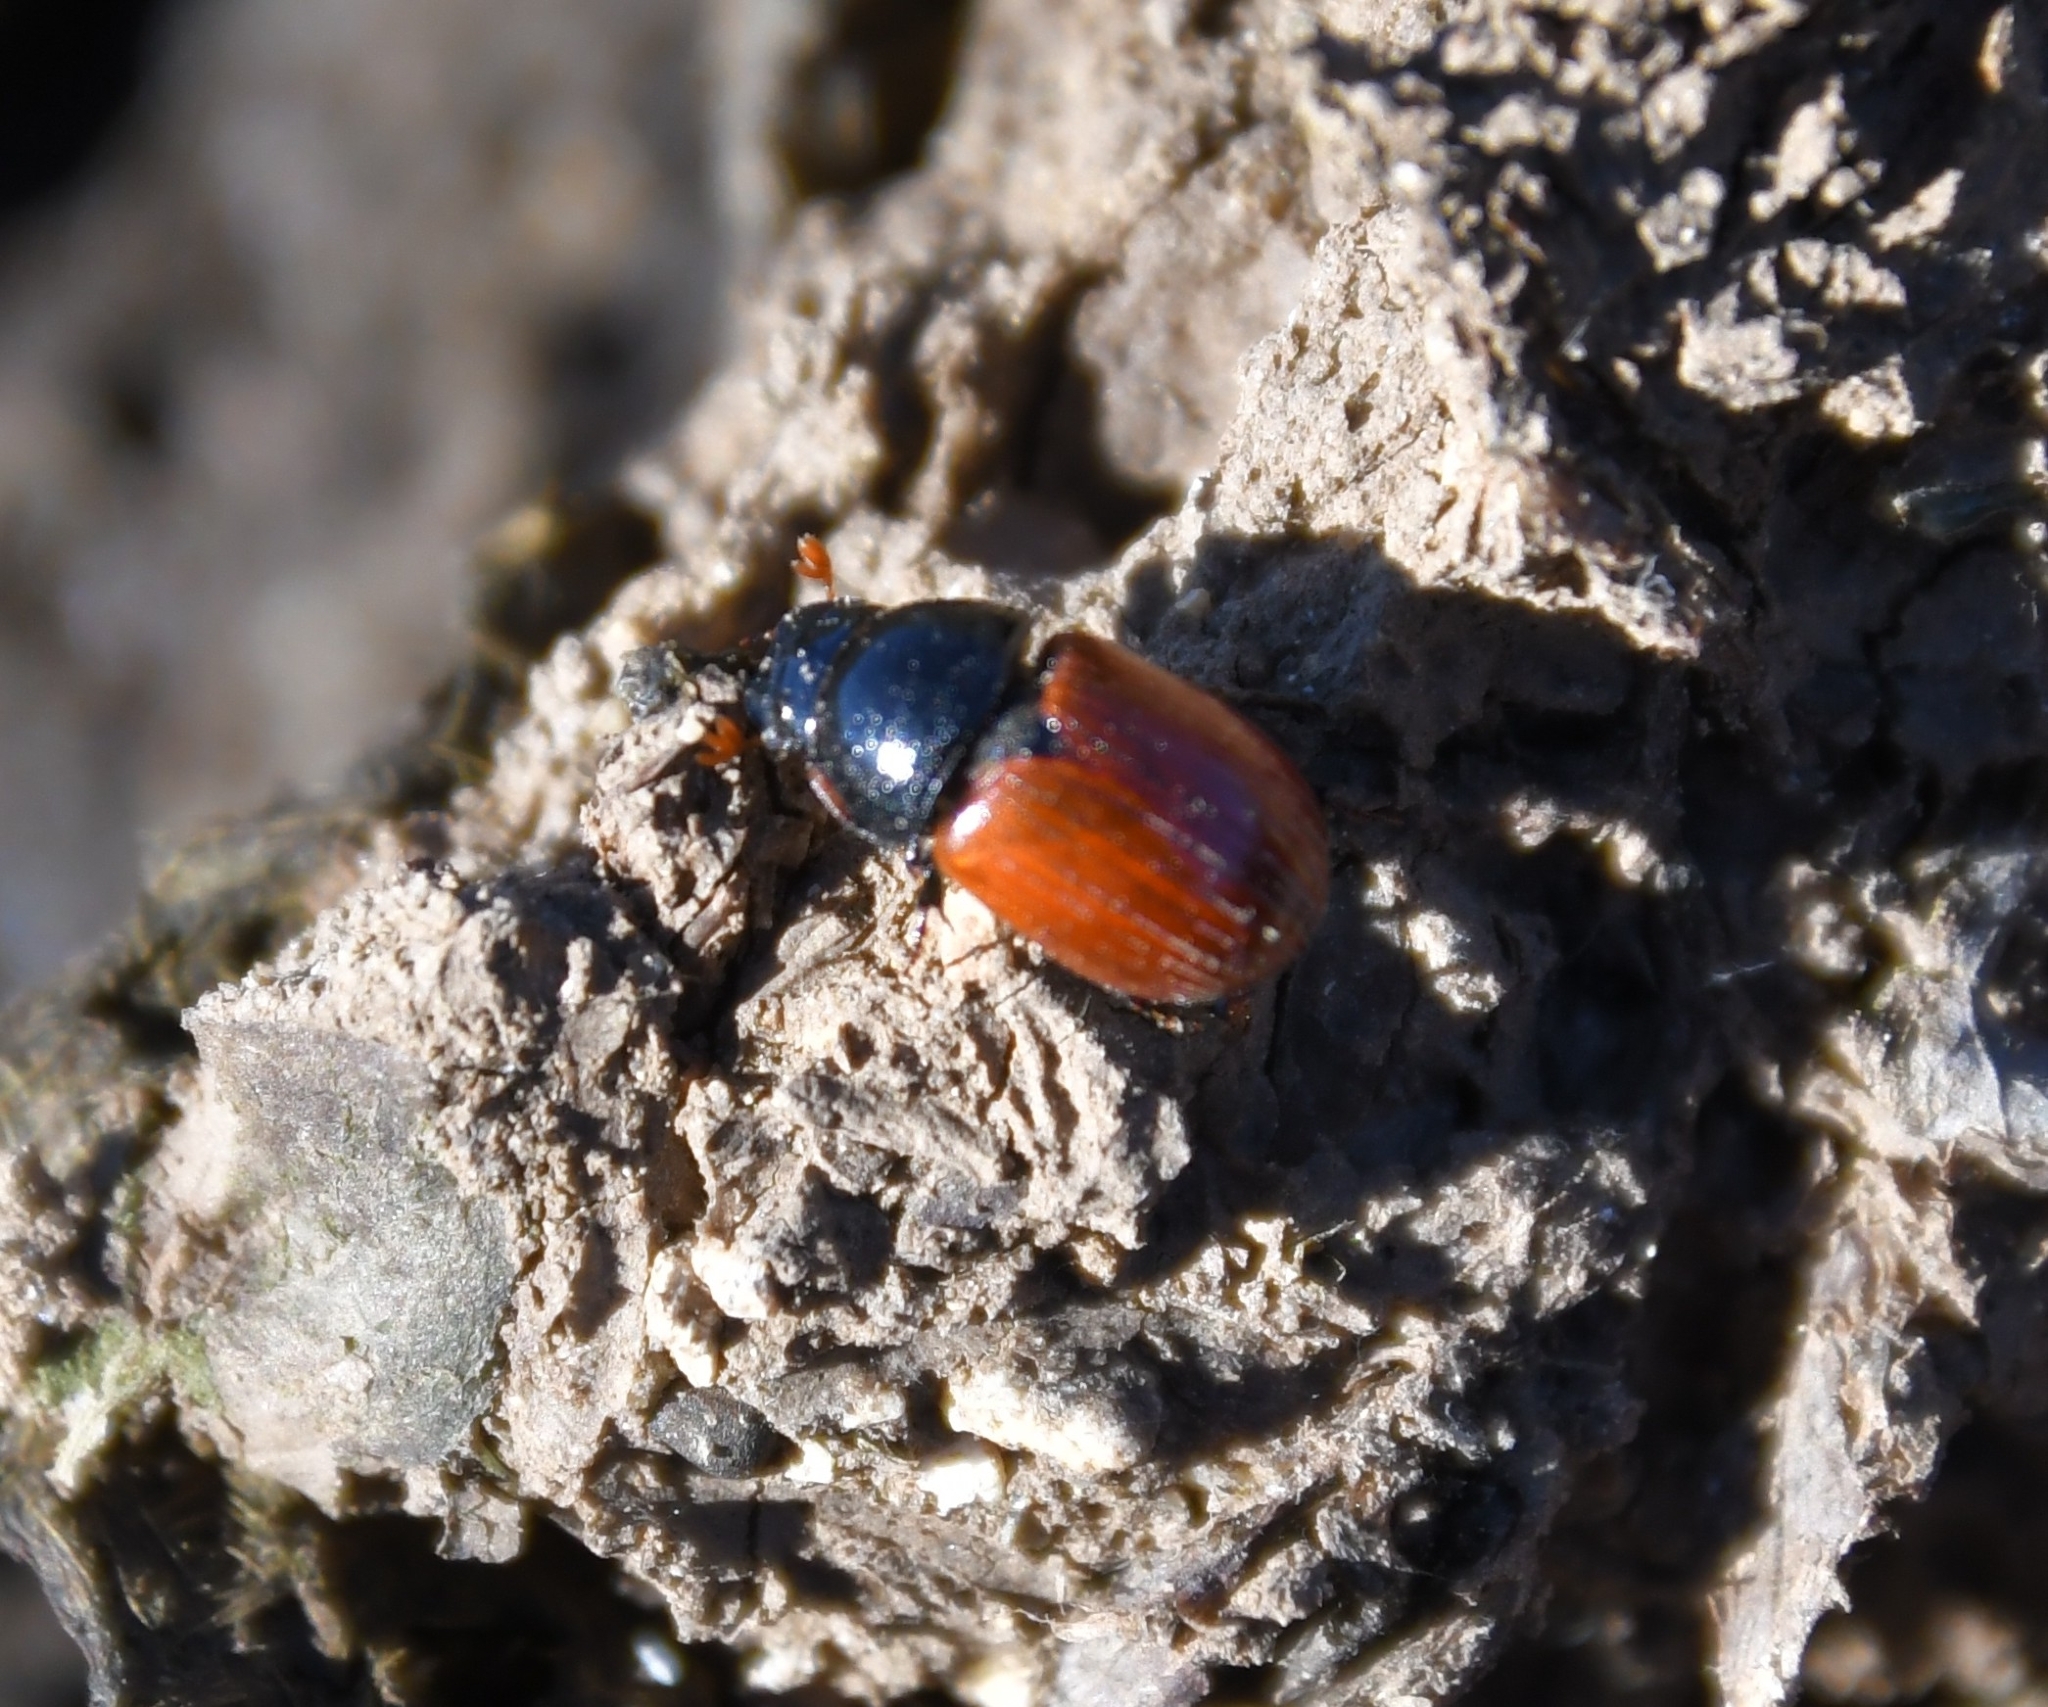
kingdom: Animalia
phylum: Arthropoda
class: Insecta
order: Coleoptera
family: Scarabaeidae
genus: Aphodius
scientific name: Aphodius fimetarius
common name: Common dung beetle
